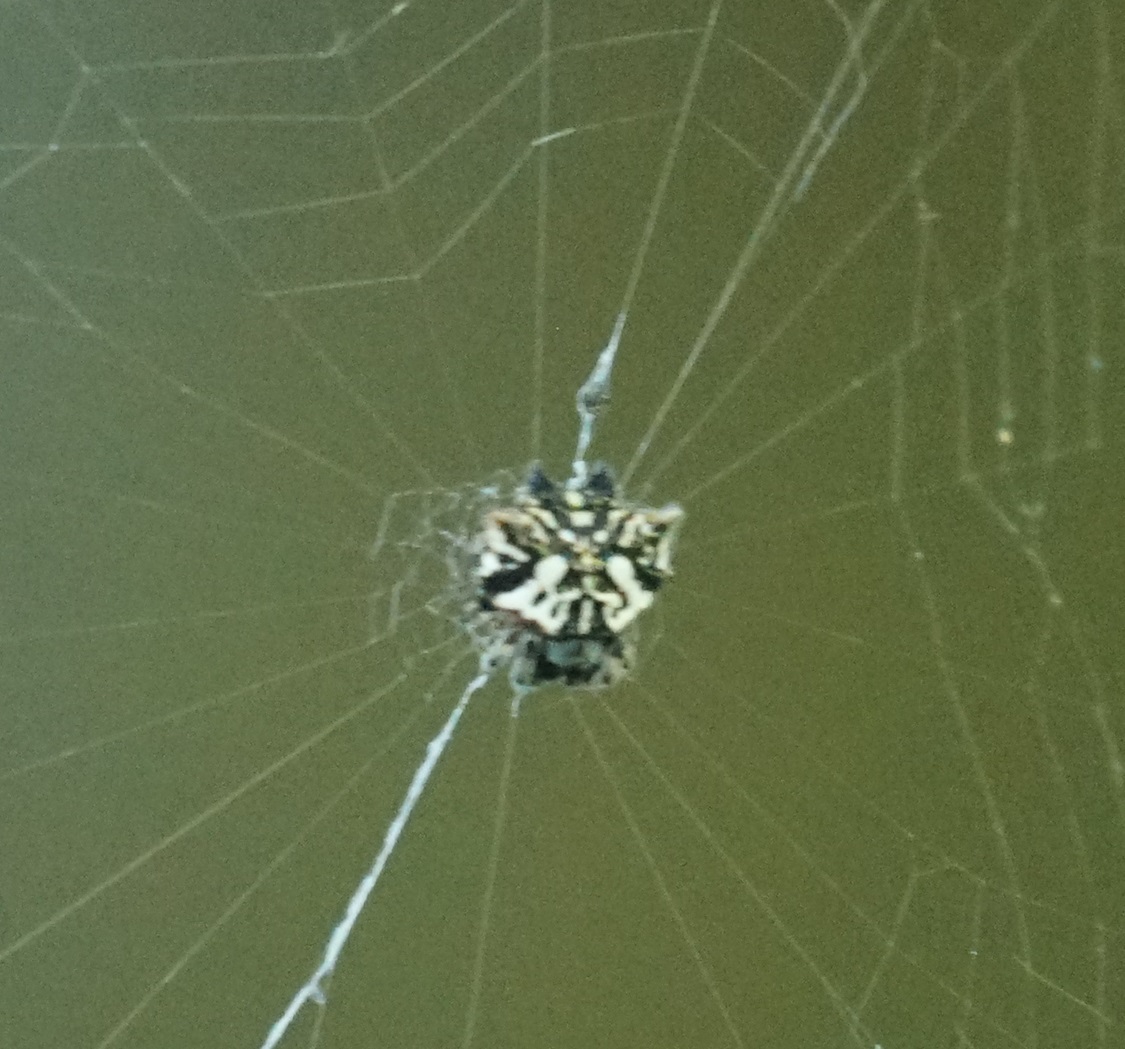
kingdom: Animalia
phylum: Arthropoda
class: Arachnida
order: Araneae
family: Araneidae
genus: Gasteracantha
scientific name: Gasteracantha sacerdotalis
